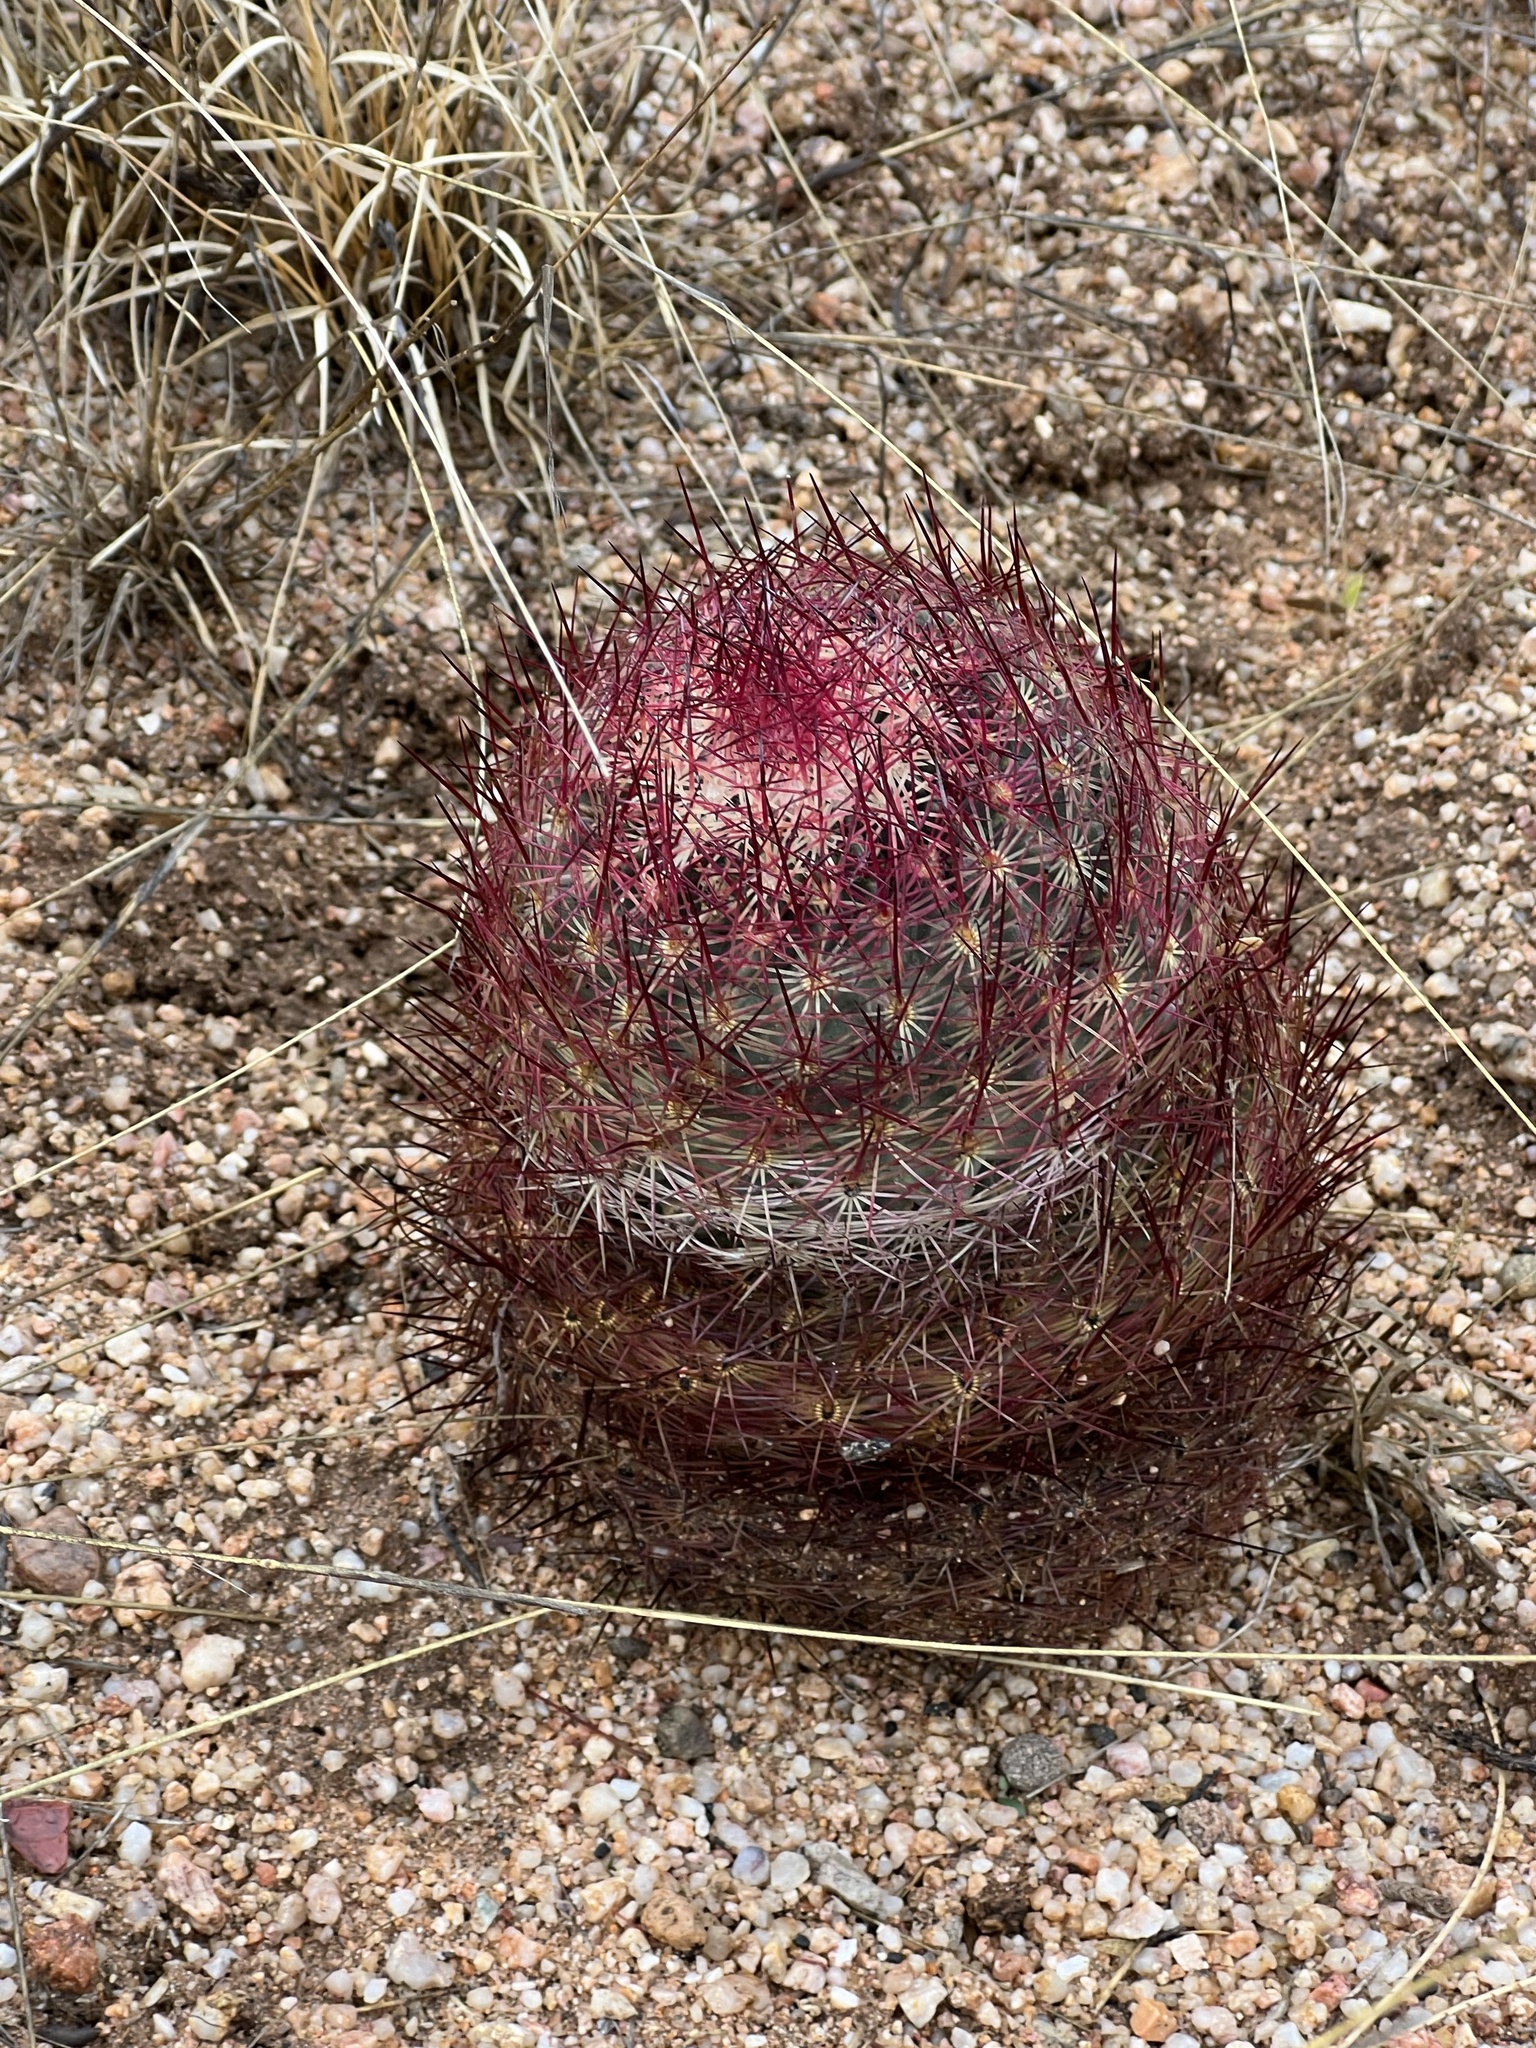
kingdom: Plantae
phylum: Tracheophyta
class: Magnoliopsida
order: Caryophyllales
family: Cactaceae
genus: Sclerocactus
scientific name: Sclerocactus johnsonii
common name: Eight-spine fishhook cactus
